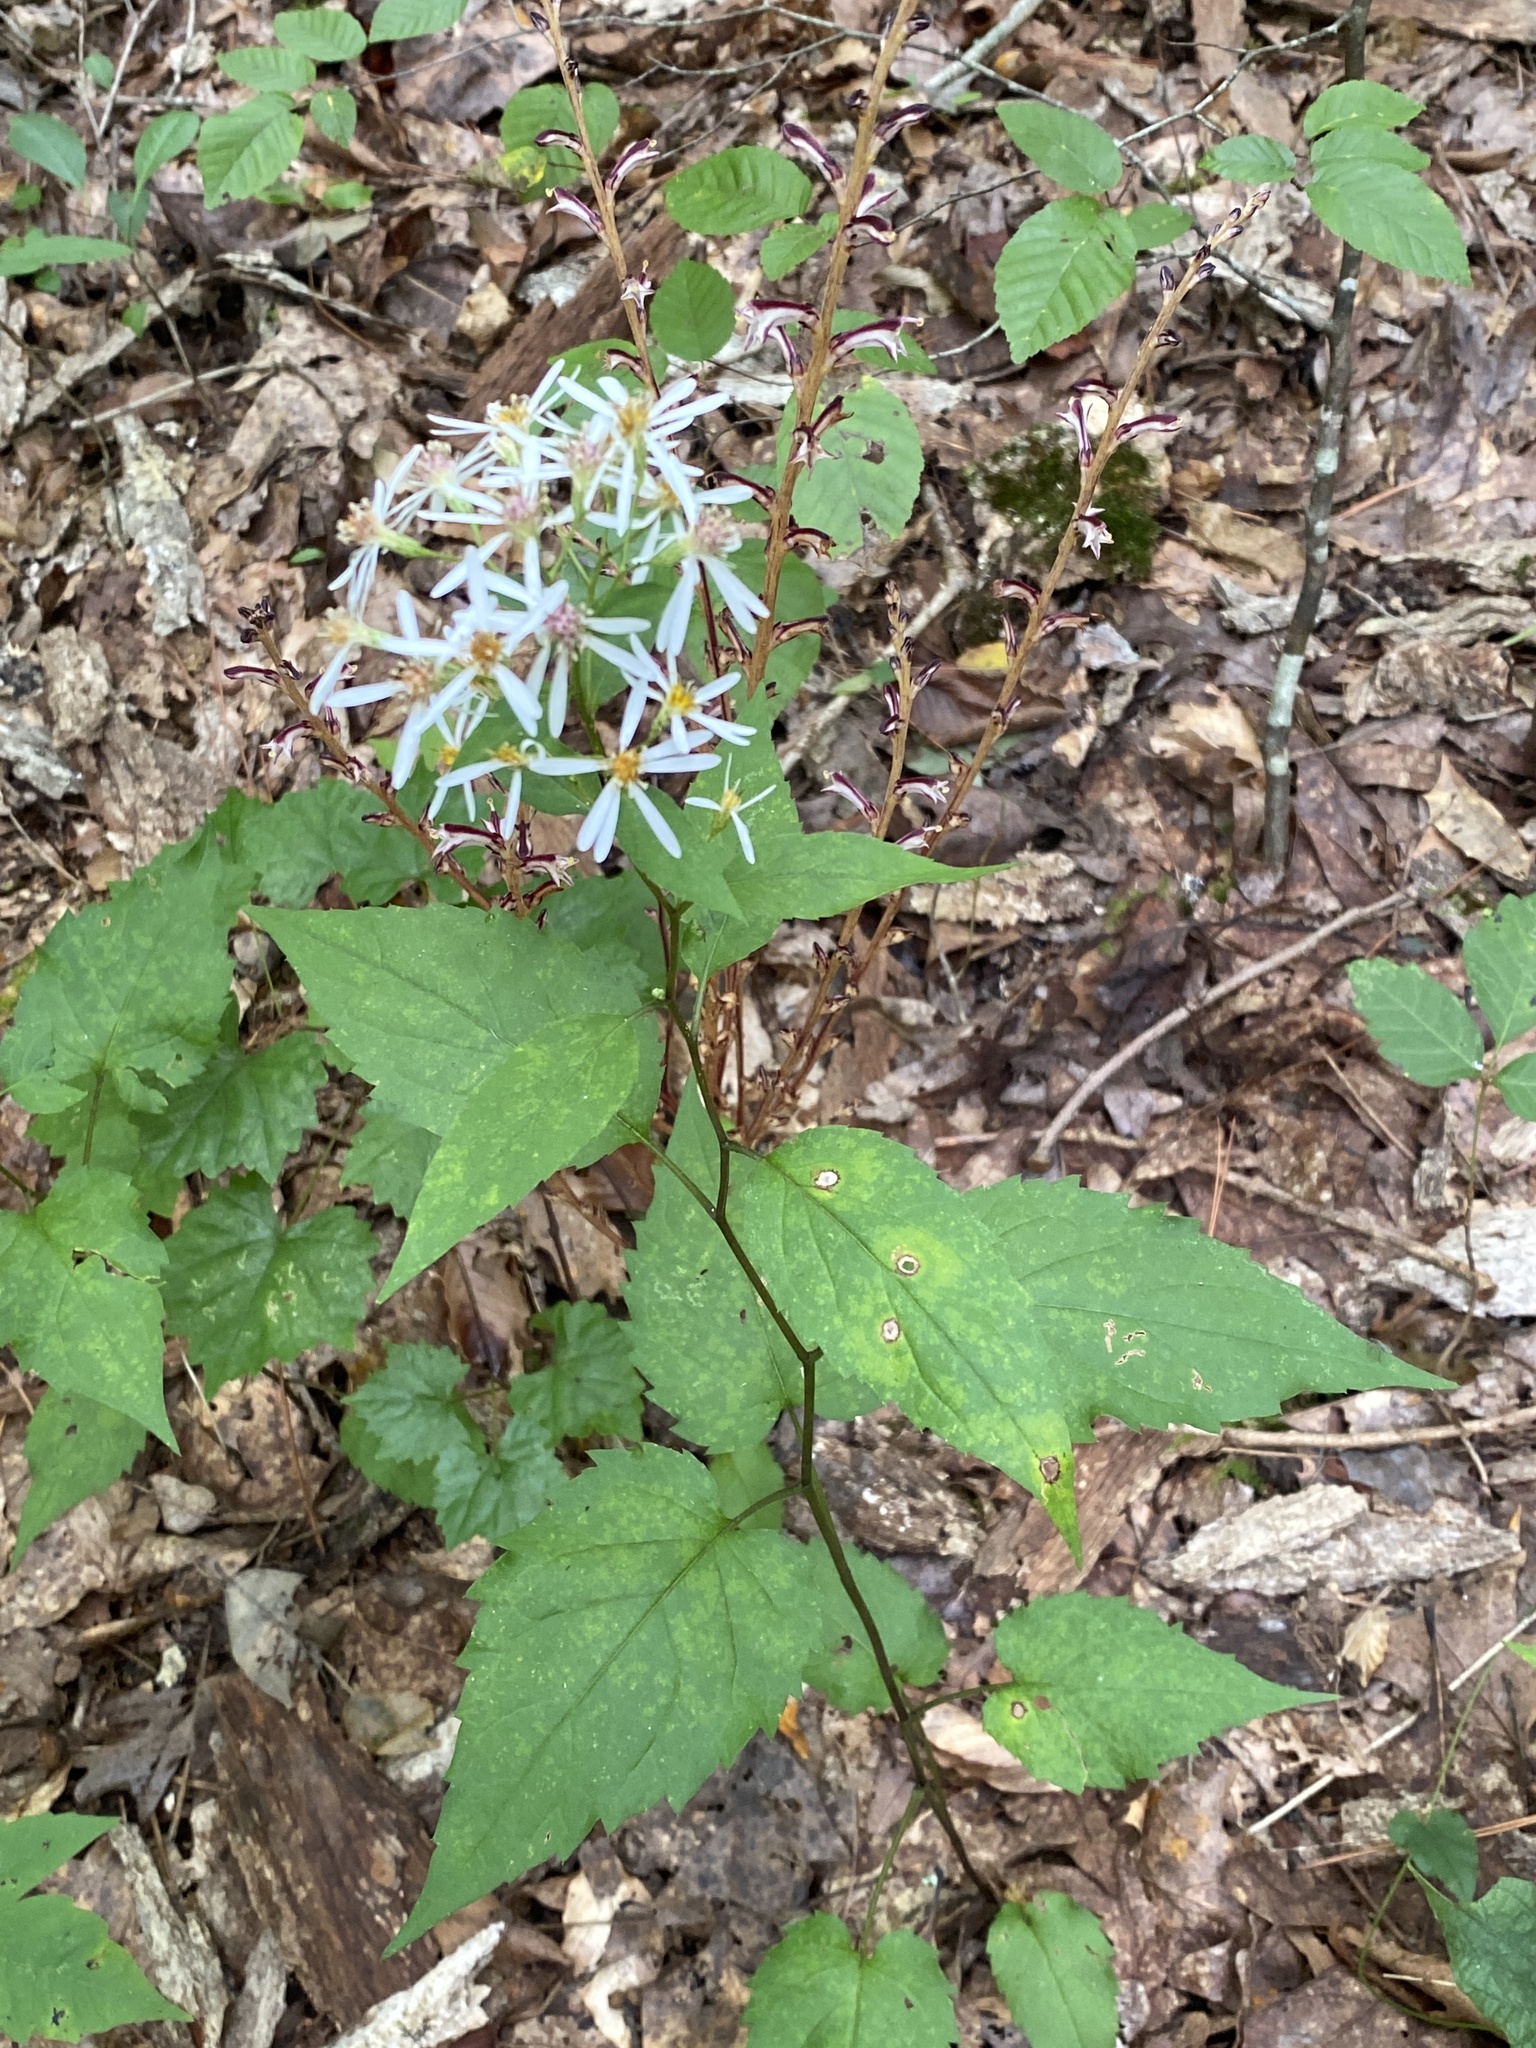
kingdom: Plantae
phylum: Tracheophyta
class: Magnoliopsida
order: Asterales
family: Asteraceae
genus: Eurybia
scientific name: Eurybia divaricata
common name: White wood aster
